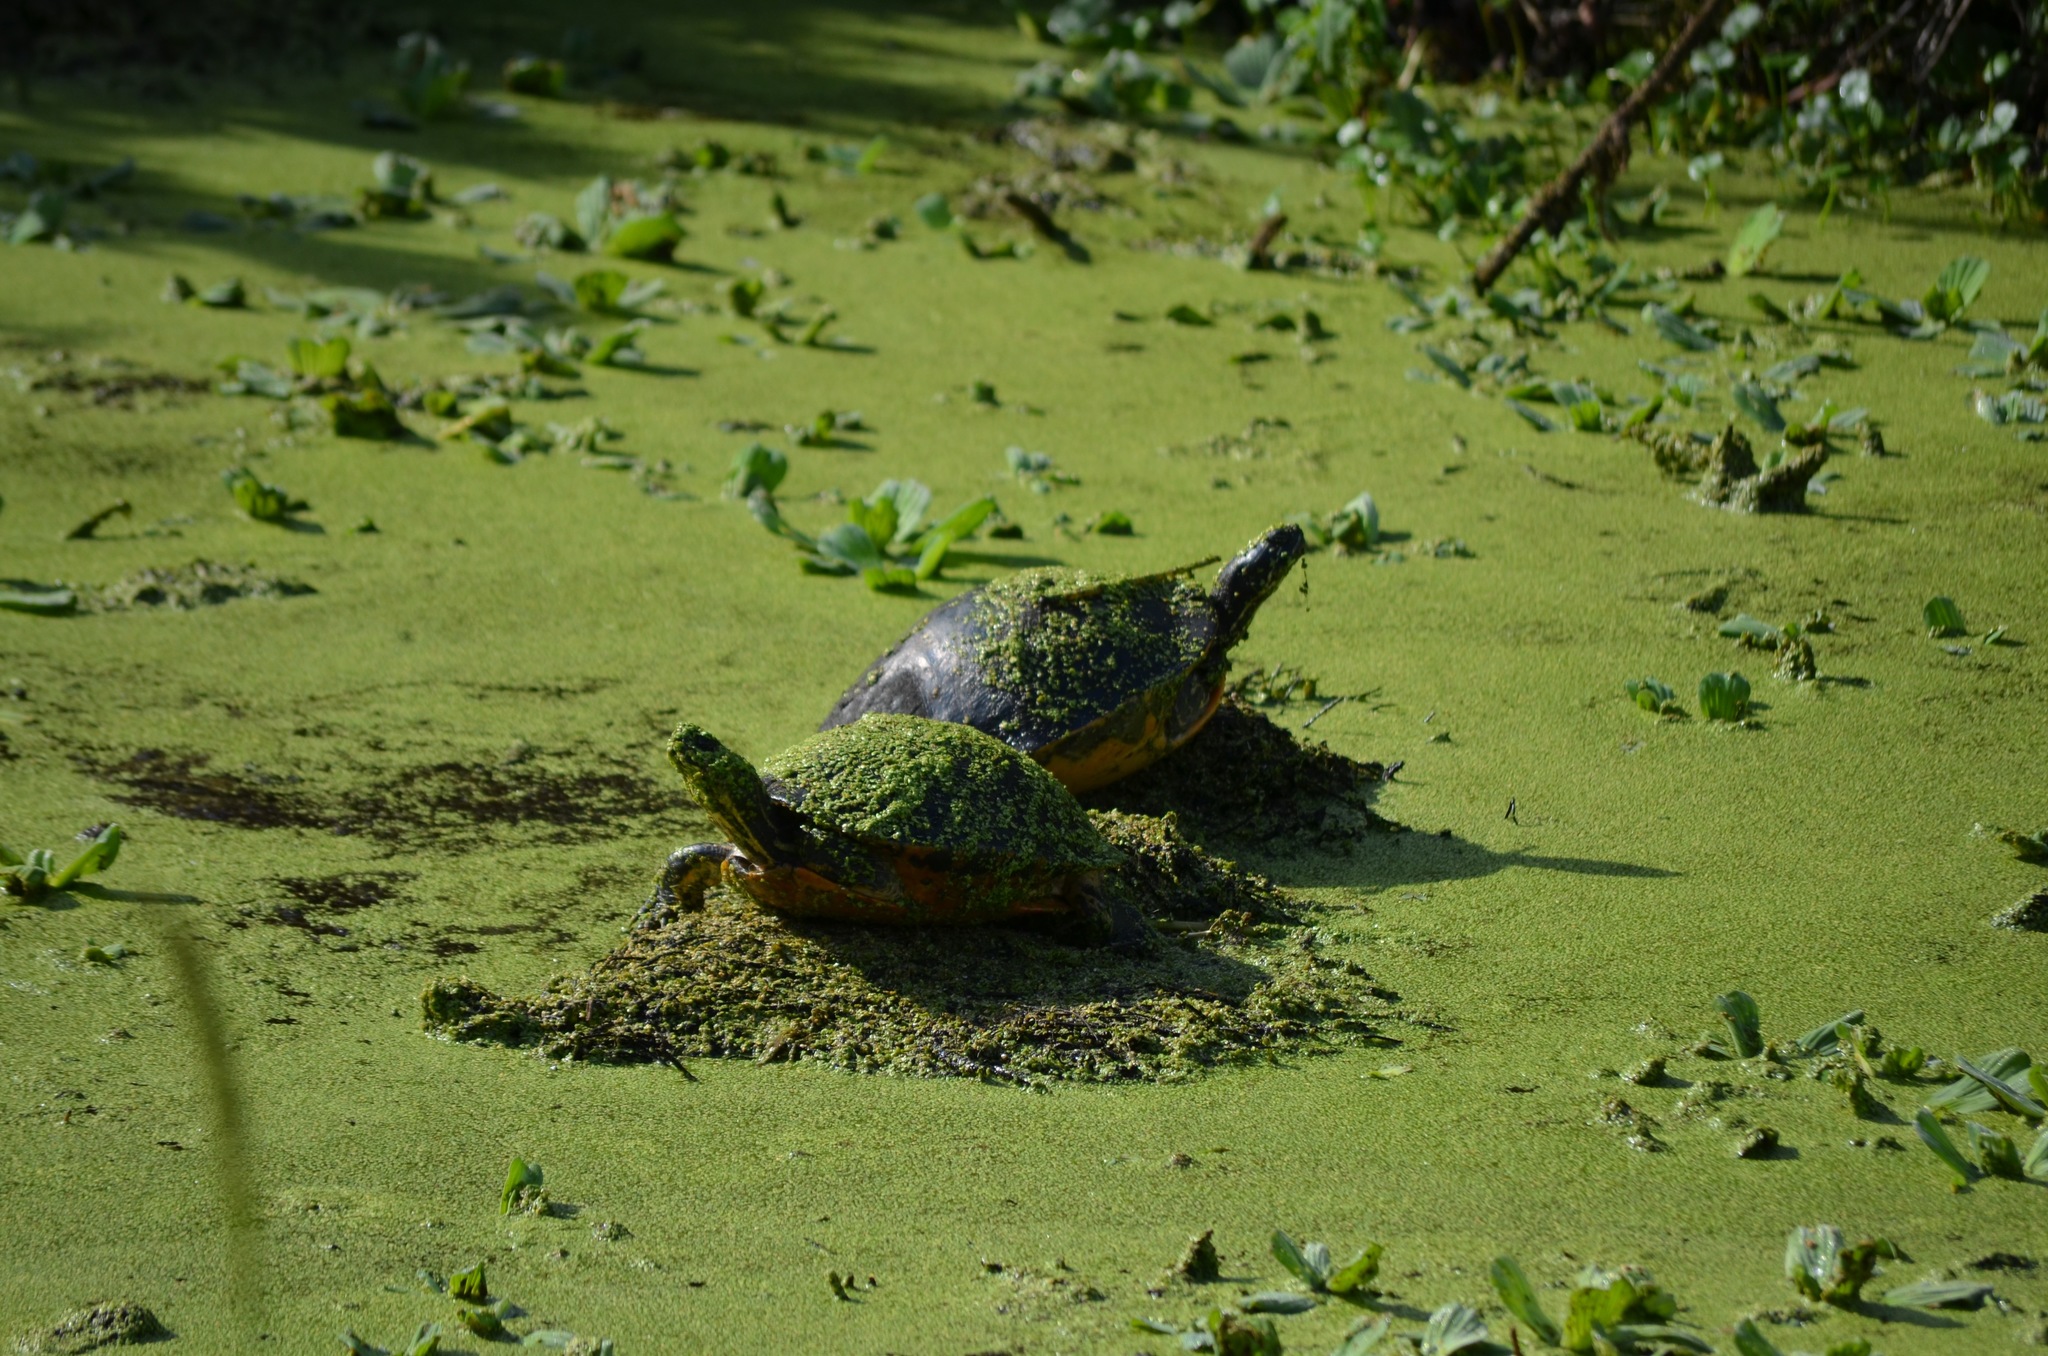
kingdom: Animalia
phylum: Chordata
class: Testudines
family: Emydidae
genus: Pseudemys
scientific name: Pseudemys nelsoni
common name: Florida red-bellied turtle
